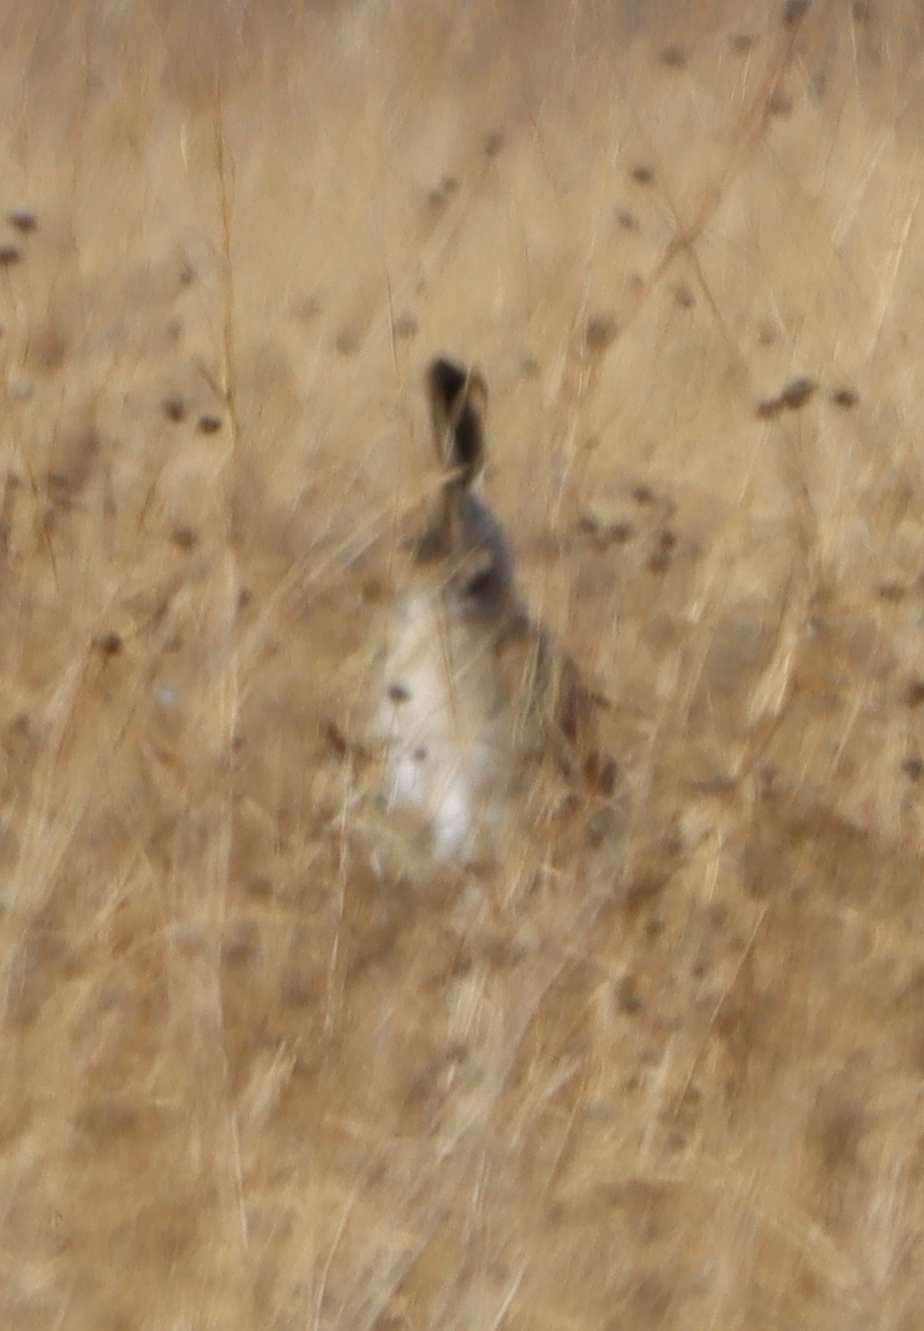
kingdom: Animalia
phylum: Chordata
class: Mammalia
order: Lagomorpha
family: Leporidae
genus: Lepus
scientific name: Lepus townsendii
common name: White-tailed jackrabbit
